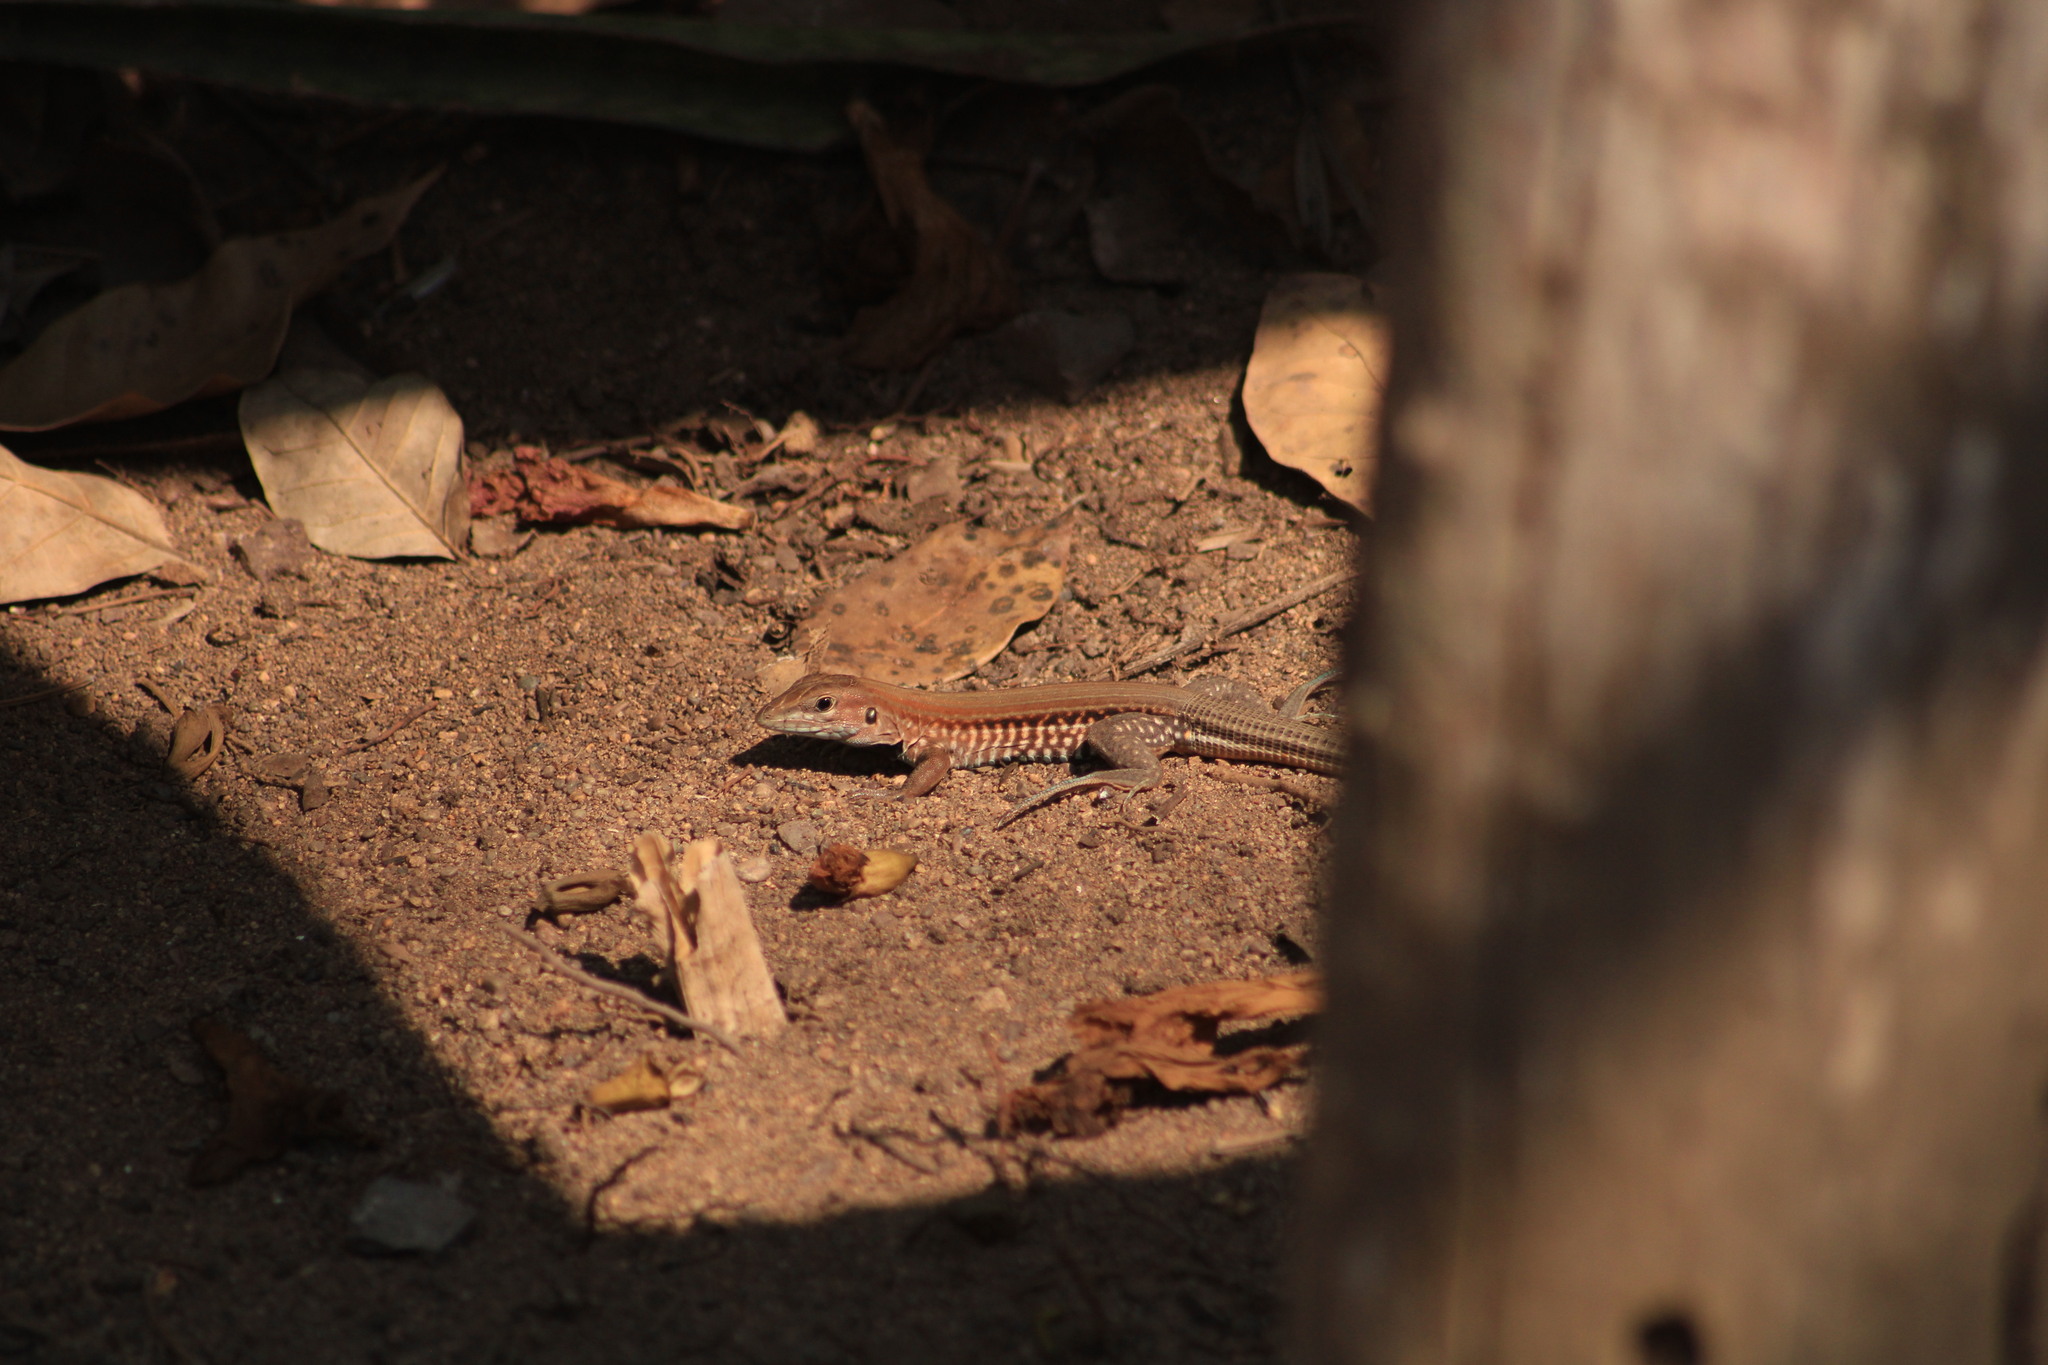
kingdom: Animalia
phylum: Chordata
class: Squamata
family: Teiidae
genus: Holcosus
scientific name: Holcosus undulatus
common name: Rainbow ameiva
